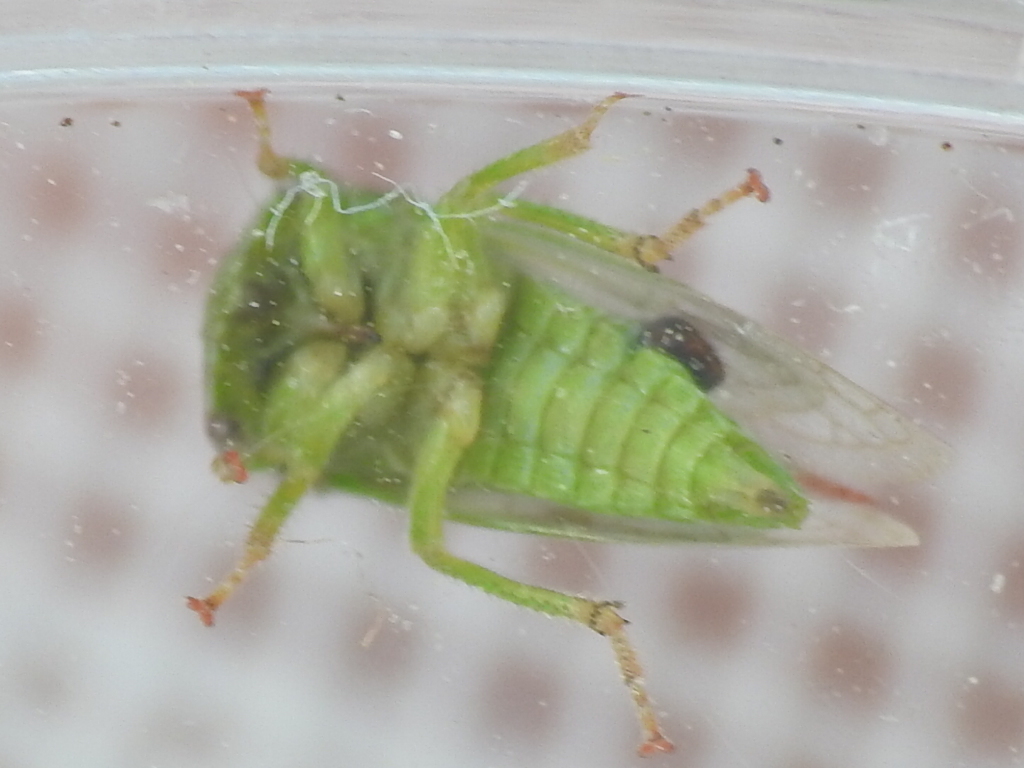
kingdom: Animalia
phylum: Arthropoda
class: Insecta
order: Hemiptera
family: Membracidae
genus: Spissistilus
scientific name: Spissistilus festina
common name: Membracid bug
